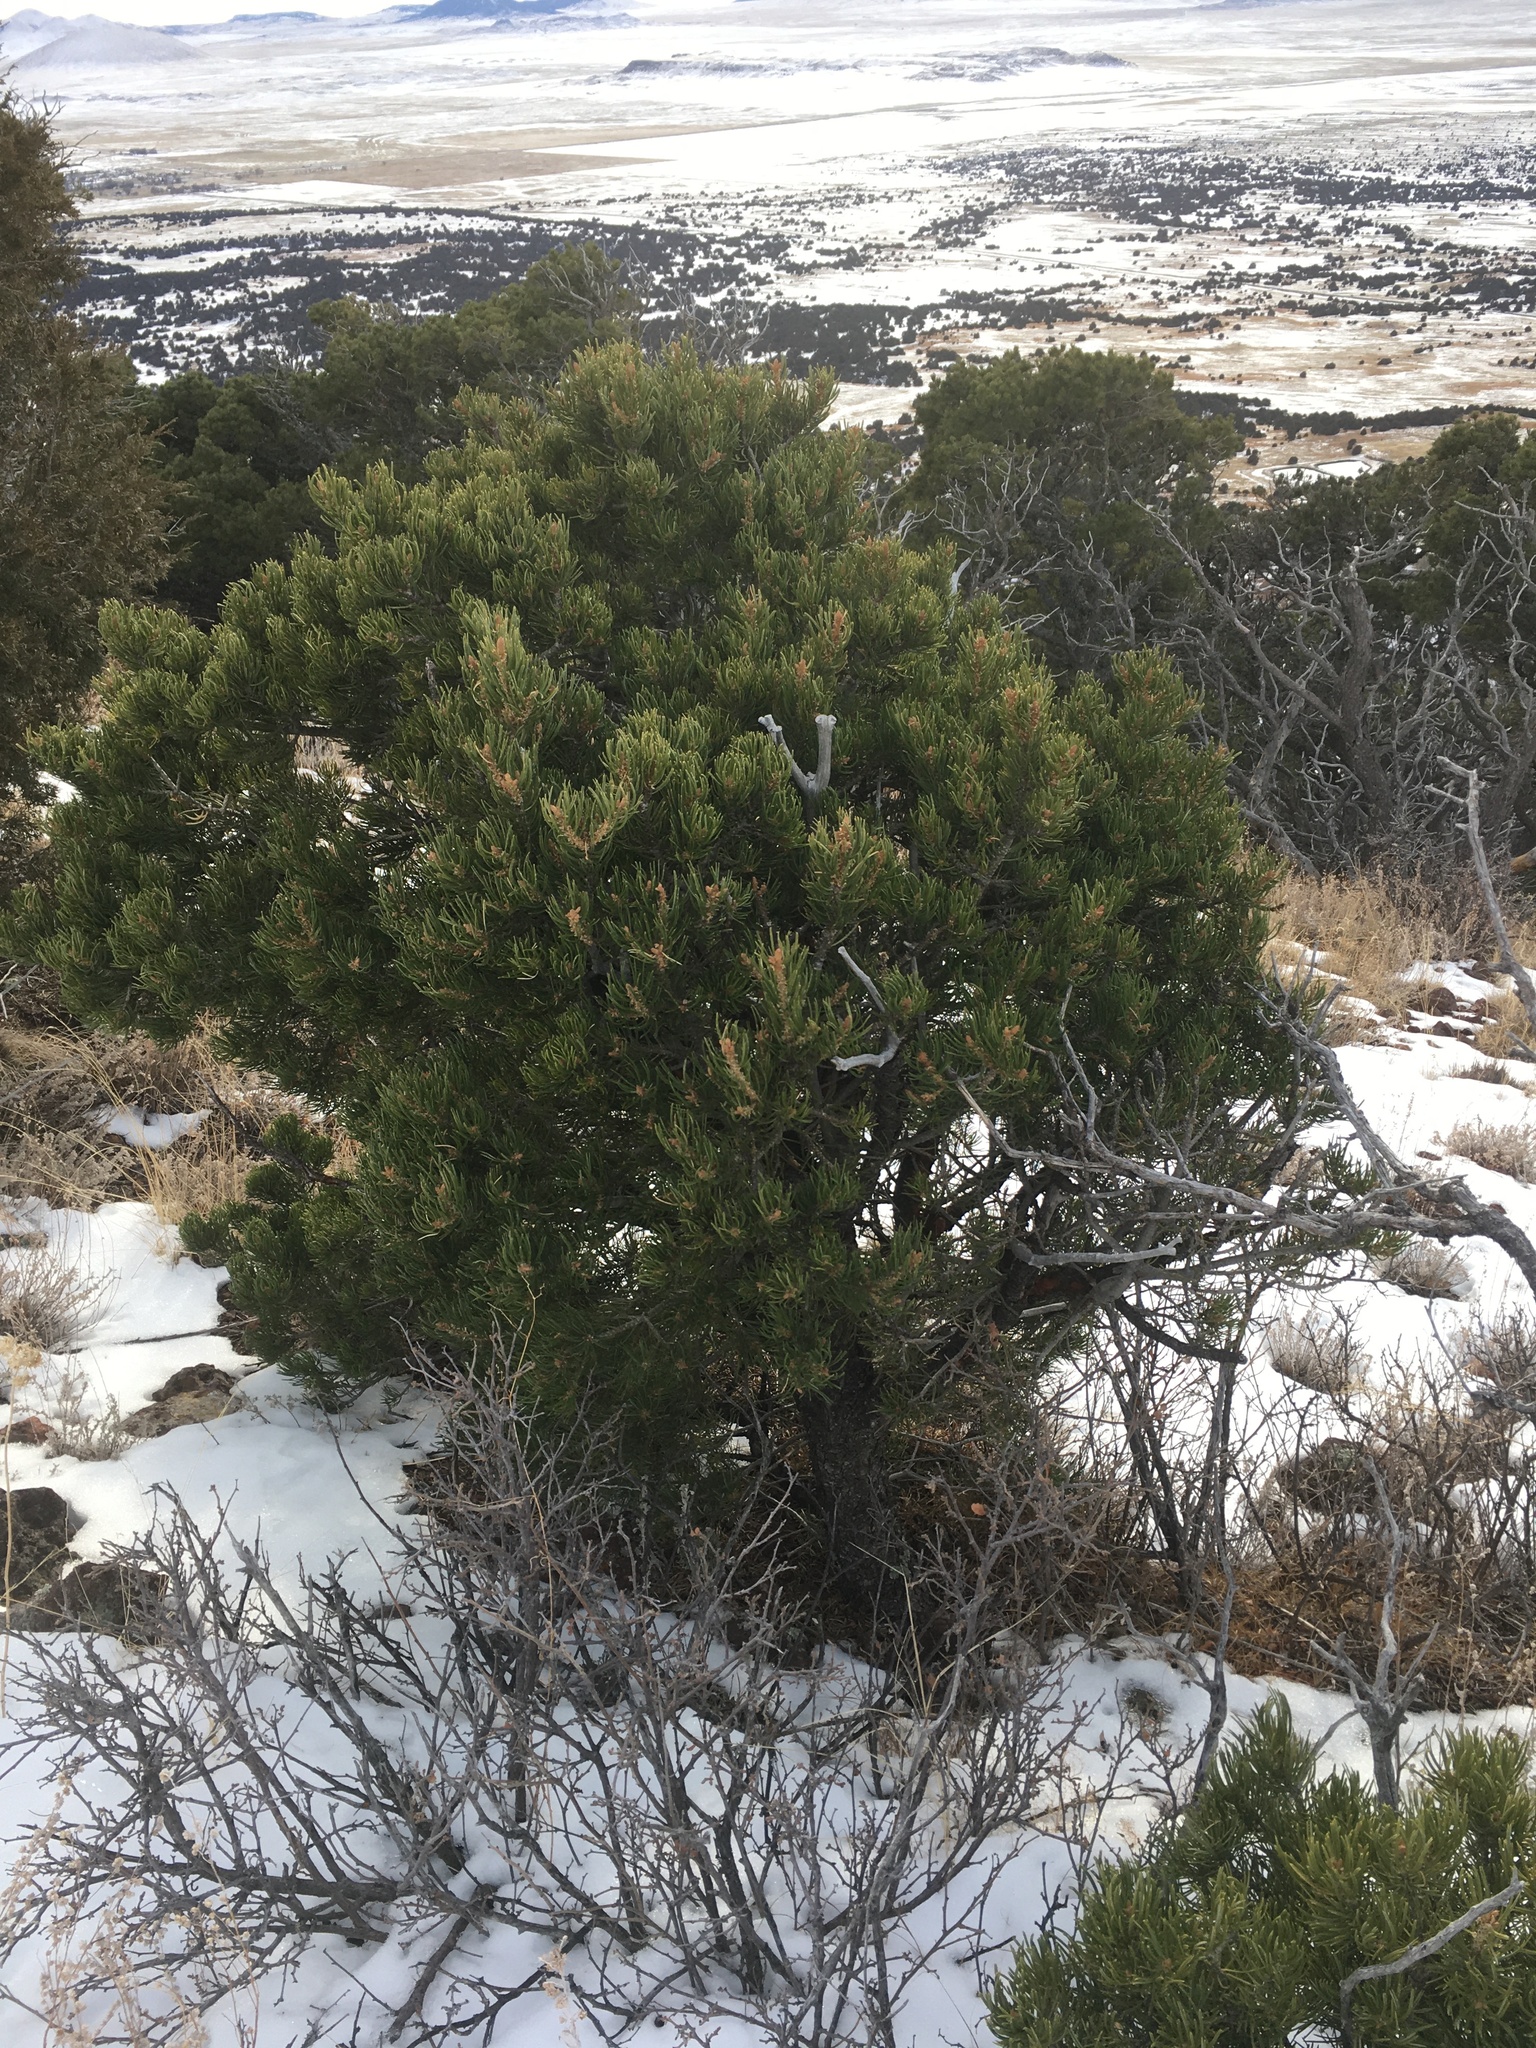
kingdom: Plantae
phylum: Tracheophyta
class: Pinopsida
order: Pinales
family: Pinaceae
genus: Pinus
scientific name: Pinus edulis
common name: Colorado pinyon
